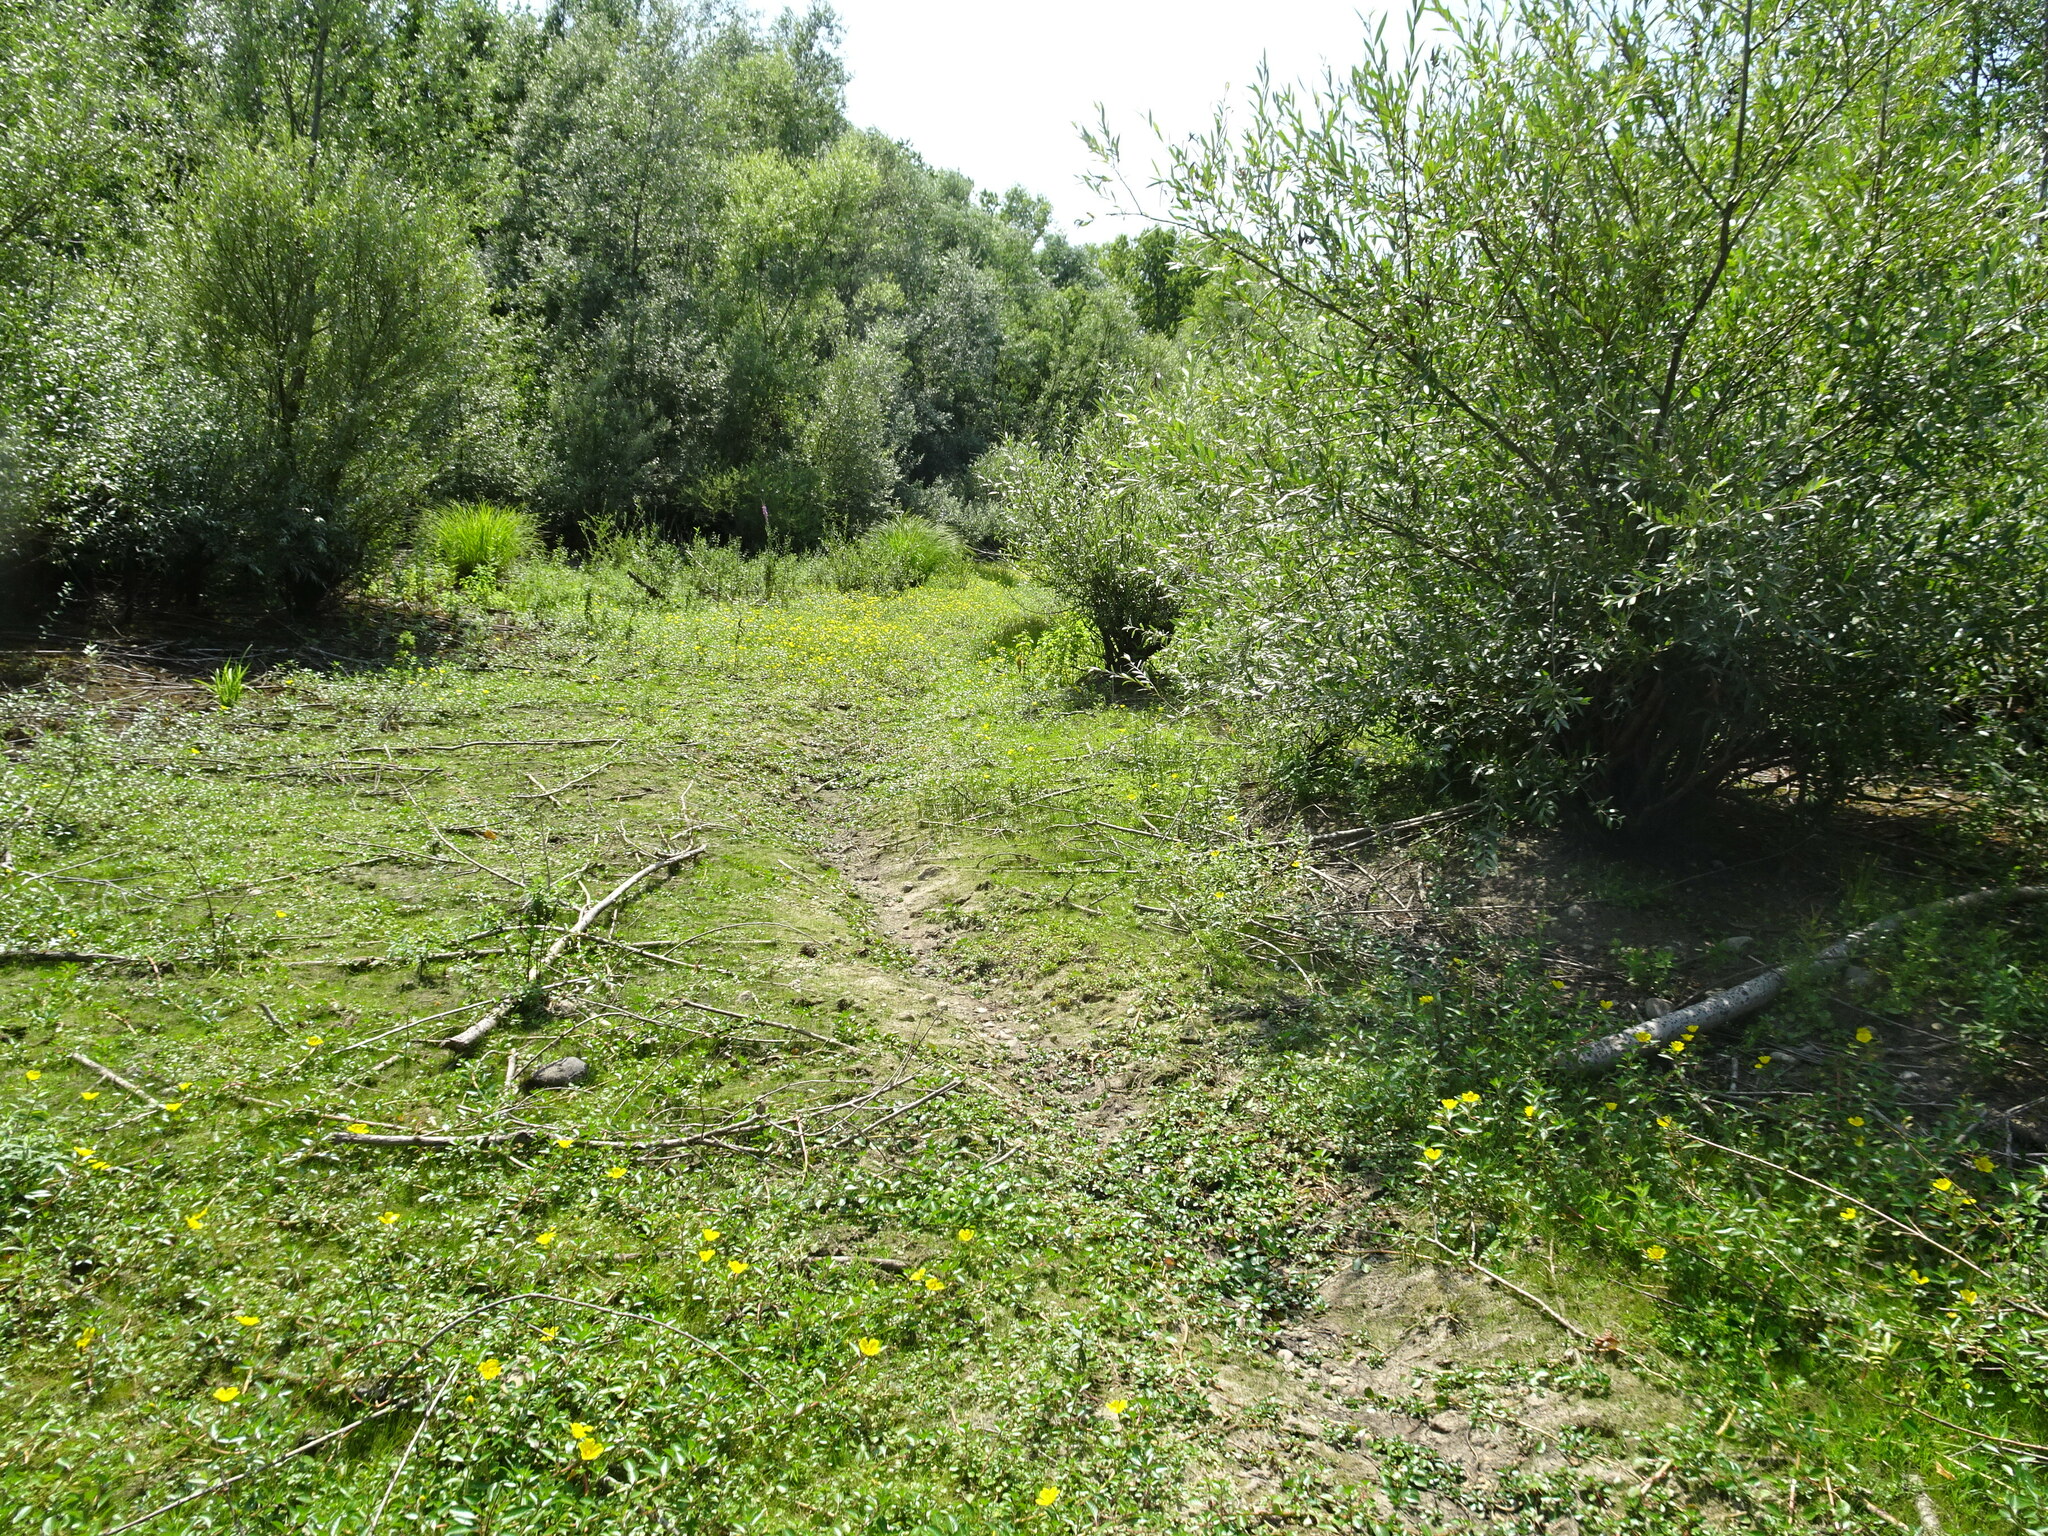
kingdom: Animalia
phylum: Chordata
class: Mammalia
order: Rodentia
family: Castoridae
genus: Castor
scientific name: Castor fiber
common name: Eurasian beaver
